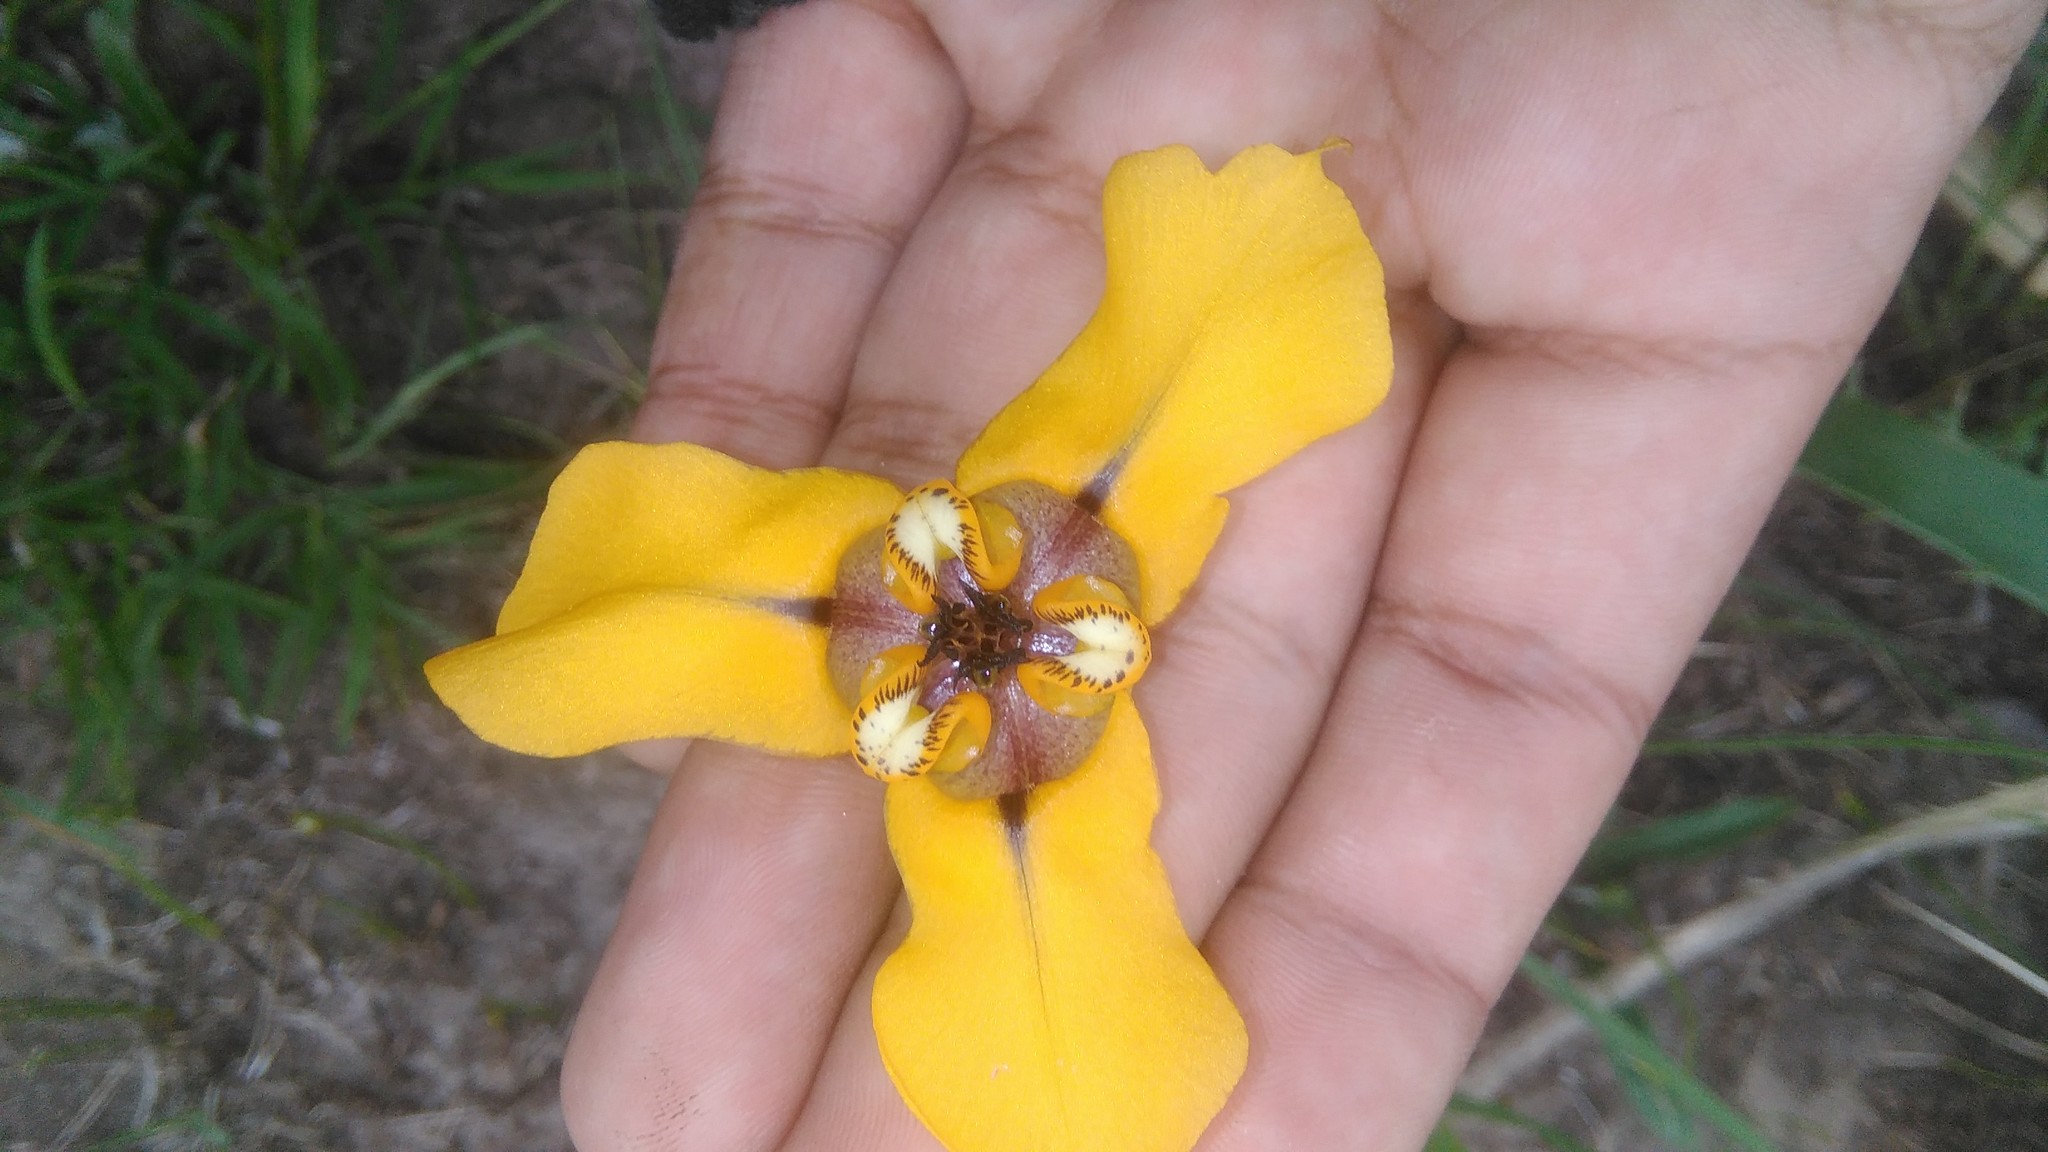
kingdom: Plantae
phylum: Tracheophyta
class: Liliopsida
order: Asparagales
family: Iridaceae
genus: Cypella
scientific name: Cypella herbertii
